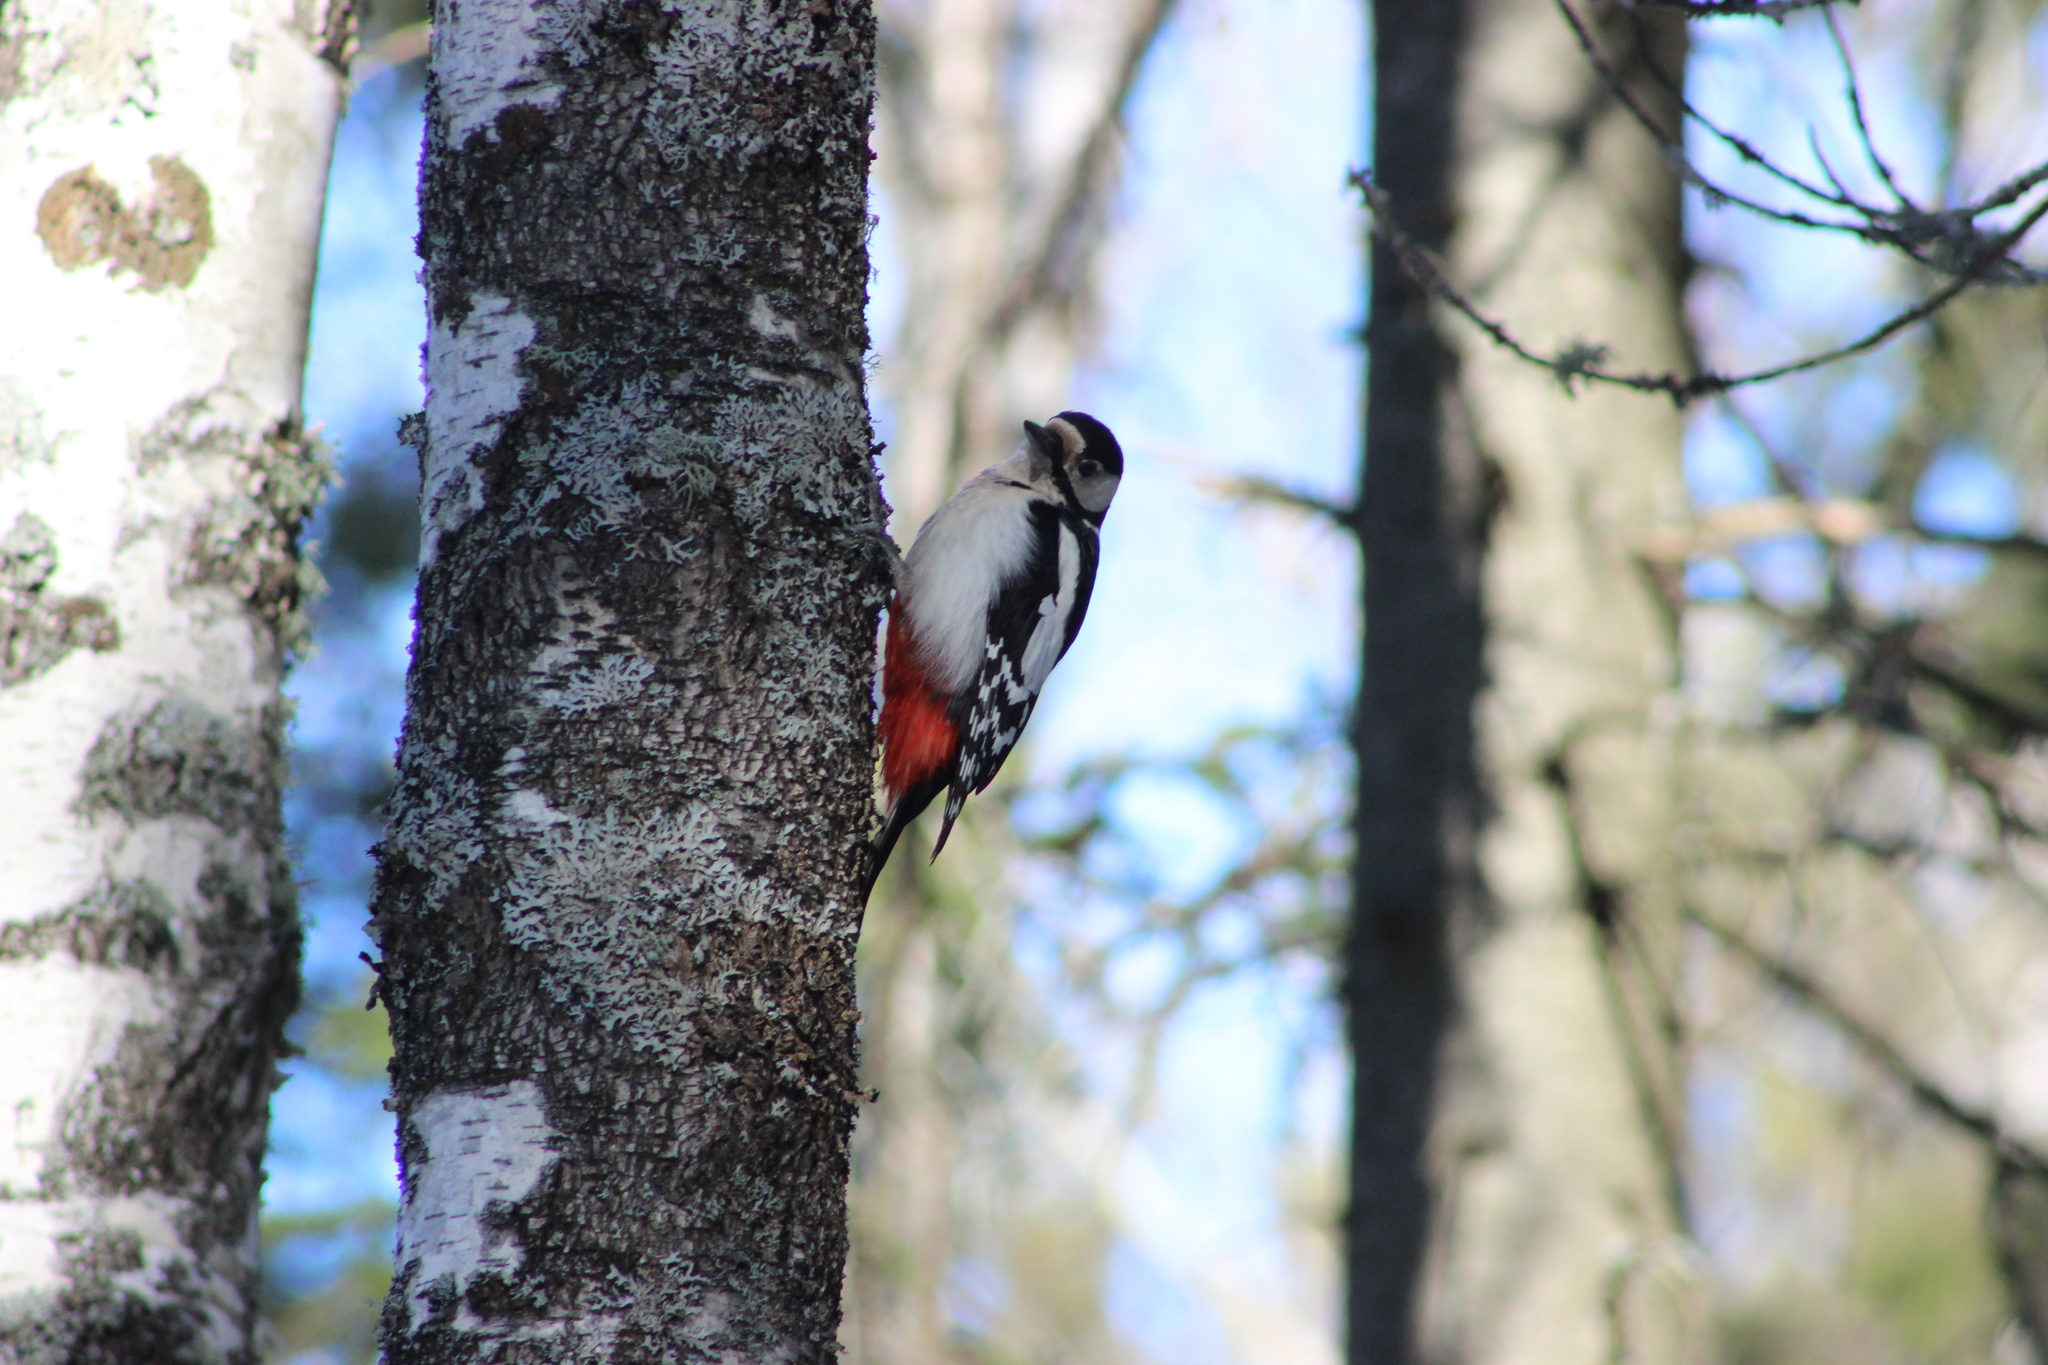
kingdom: Animalia
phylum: Chordata
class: Aves
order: Piciformes
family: Picidae
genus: Dendrocopos
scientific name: Dendrocopos major
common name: Great spotted woodpecker
